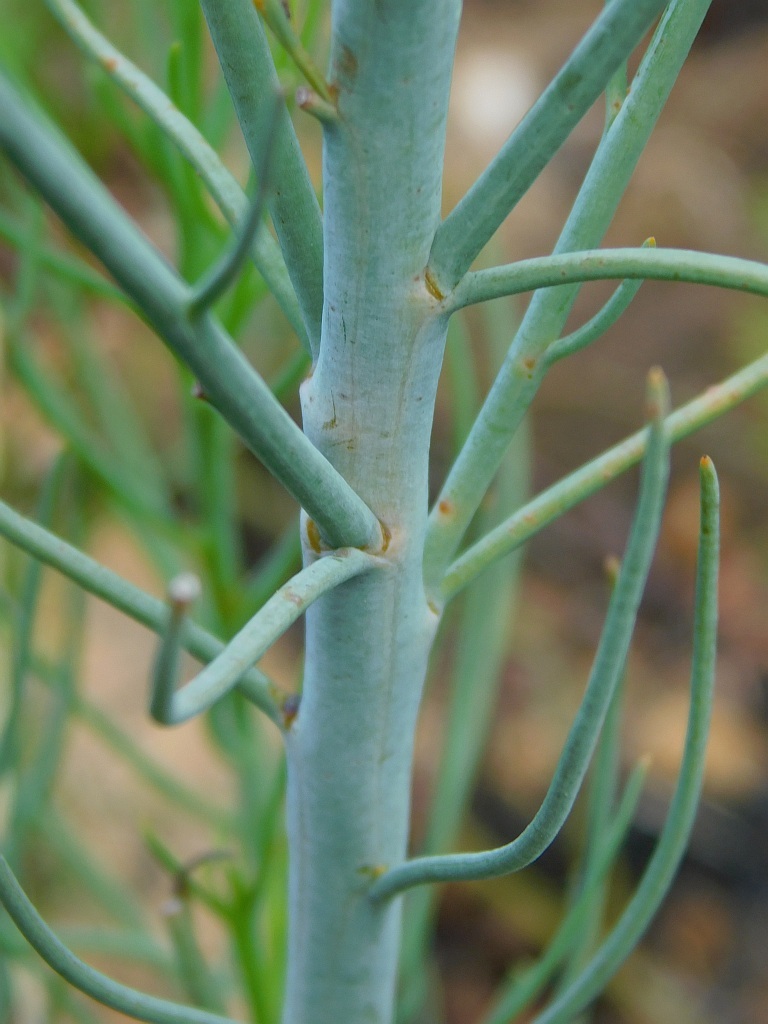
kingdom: Plantae
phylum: Tracheophyta
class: Magnoliopsida
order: Santalales
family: Thesiaceae
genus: Thesium
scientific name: Thesium strictum
